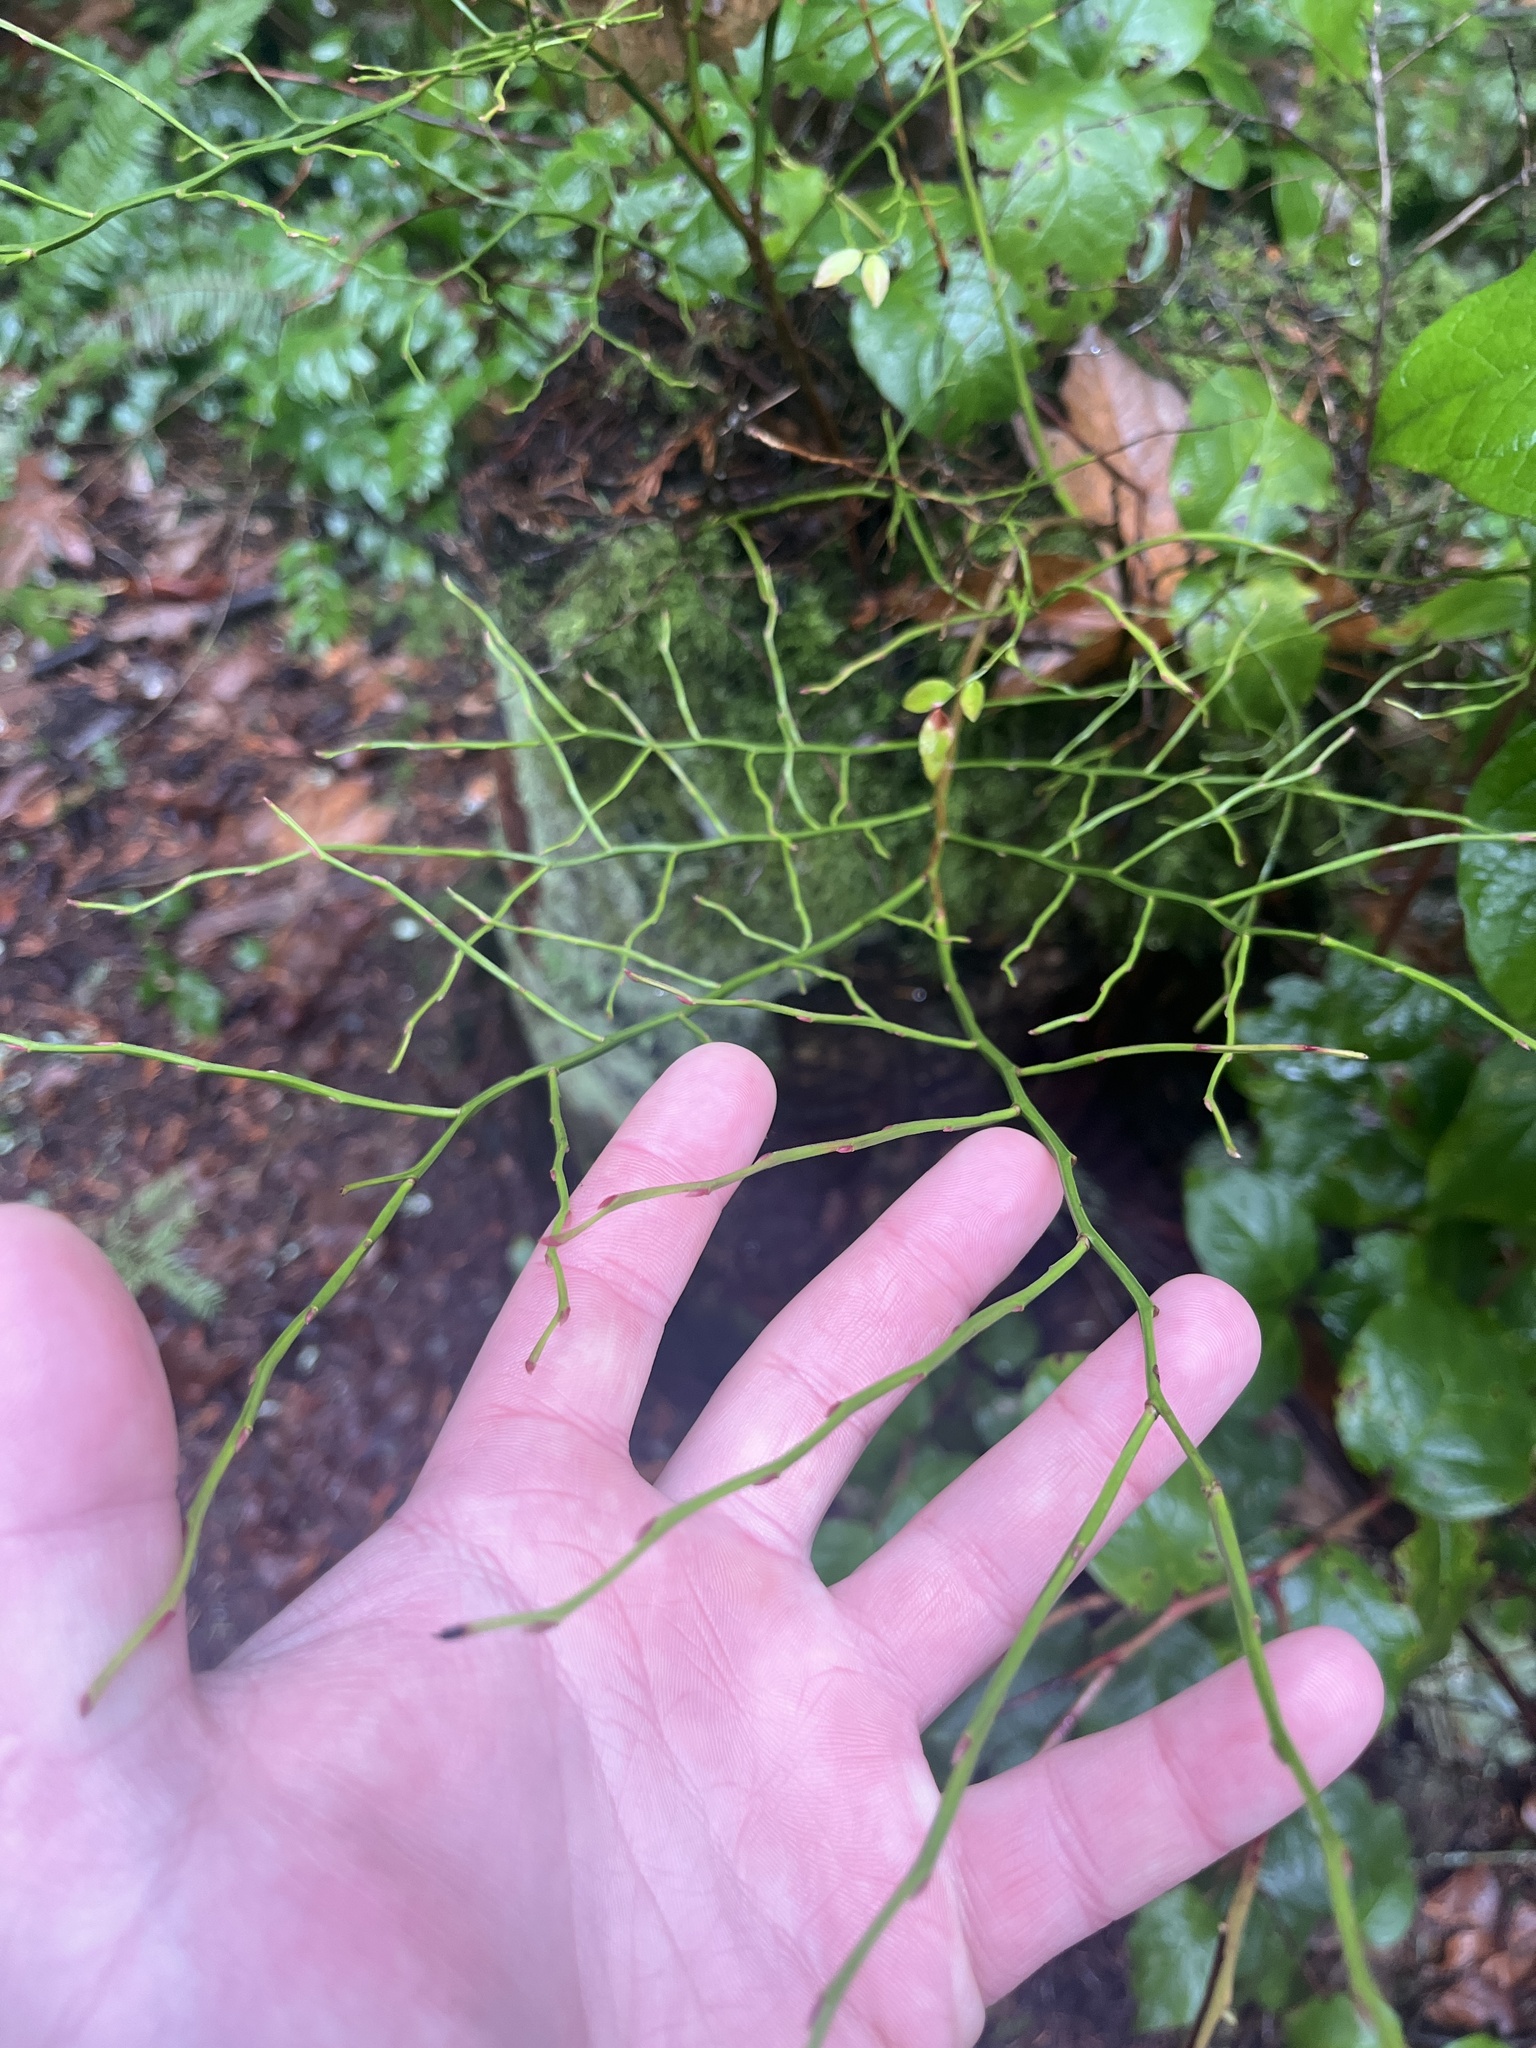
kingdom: Plantae
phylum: Tracheophyta
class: Magnoliopsida
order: Ericales
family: Ericaceae
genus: Vaccinium
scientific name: Vaccinium parvifolium
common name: Red-huckleberry
